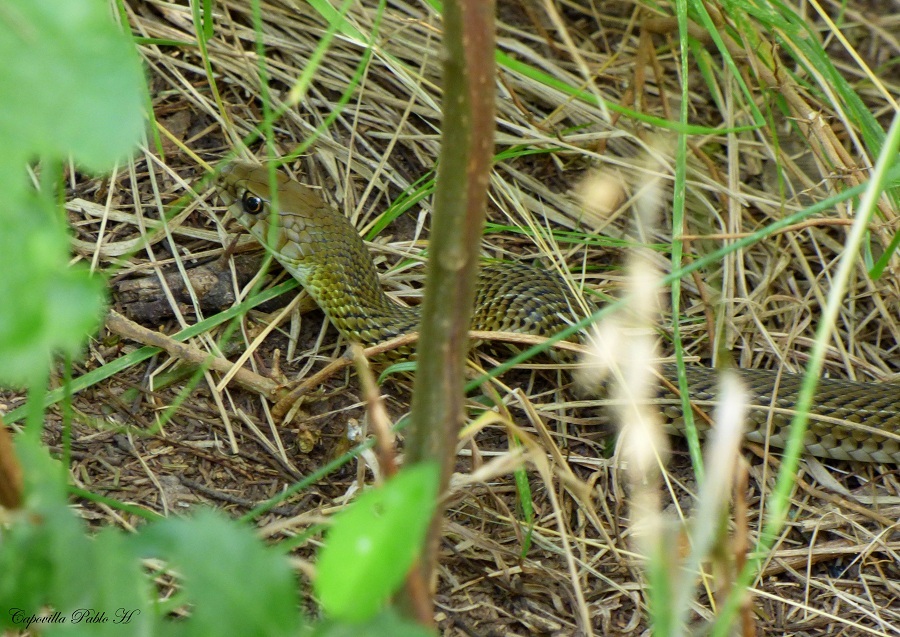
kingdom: Animalia
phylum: Chordata
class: Squamata
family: Colubridae
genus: Philodryas
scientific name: Philodryas patagoniensis
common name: Patagonia green racer
